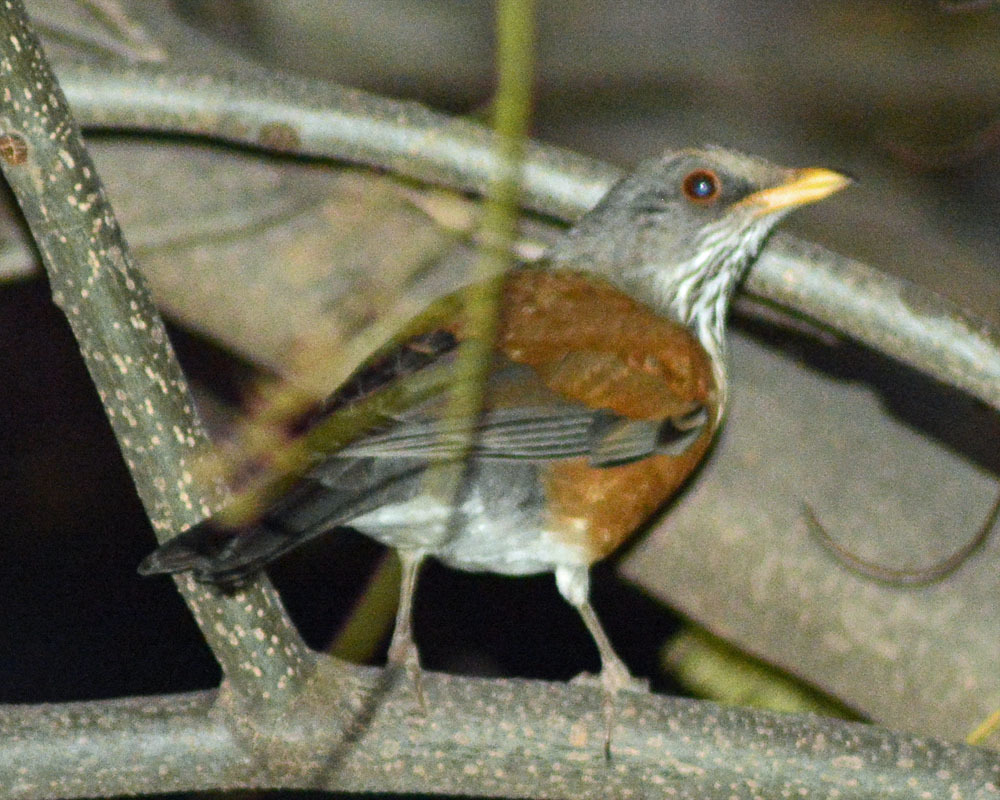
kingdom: Animalia
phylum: Chordata
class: Aves
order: Passeriformes
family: Turdidae
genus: Turdus
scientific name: Turdus rufopalliatus
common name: Rufous-backed robin
